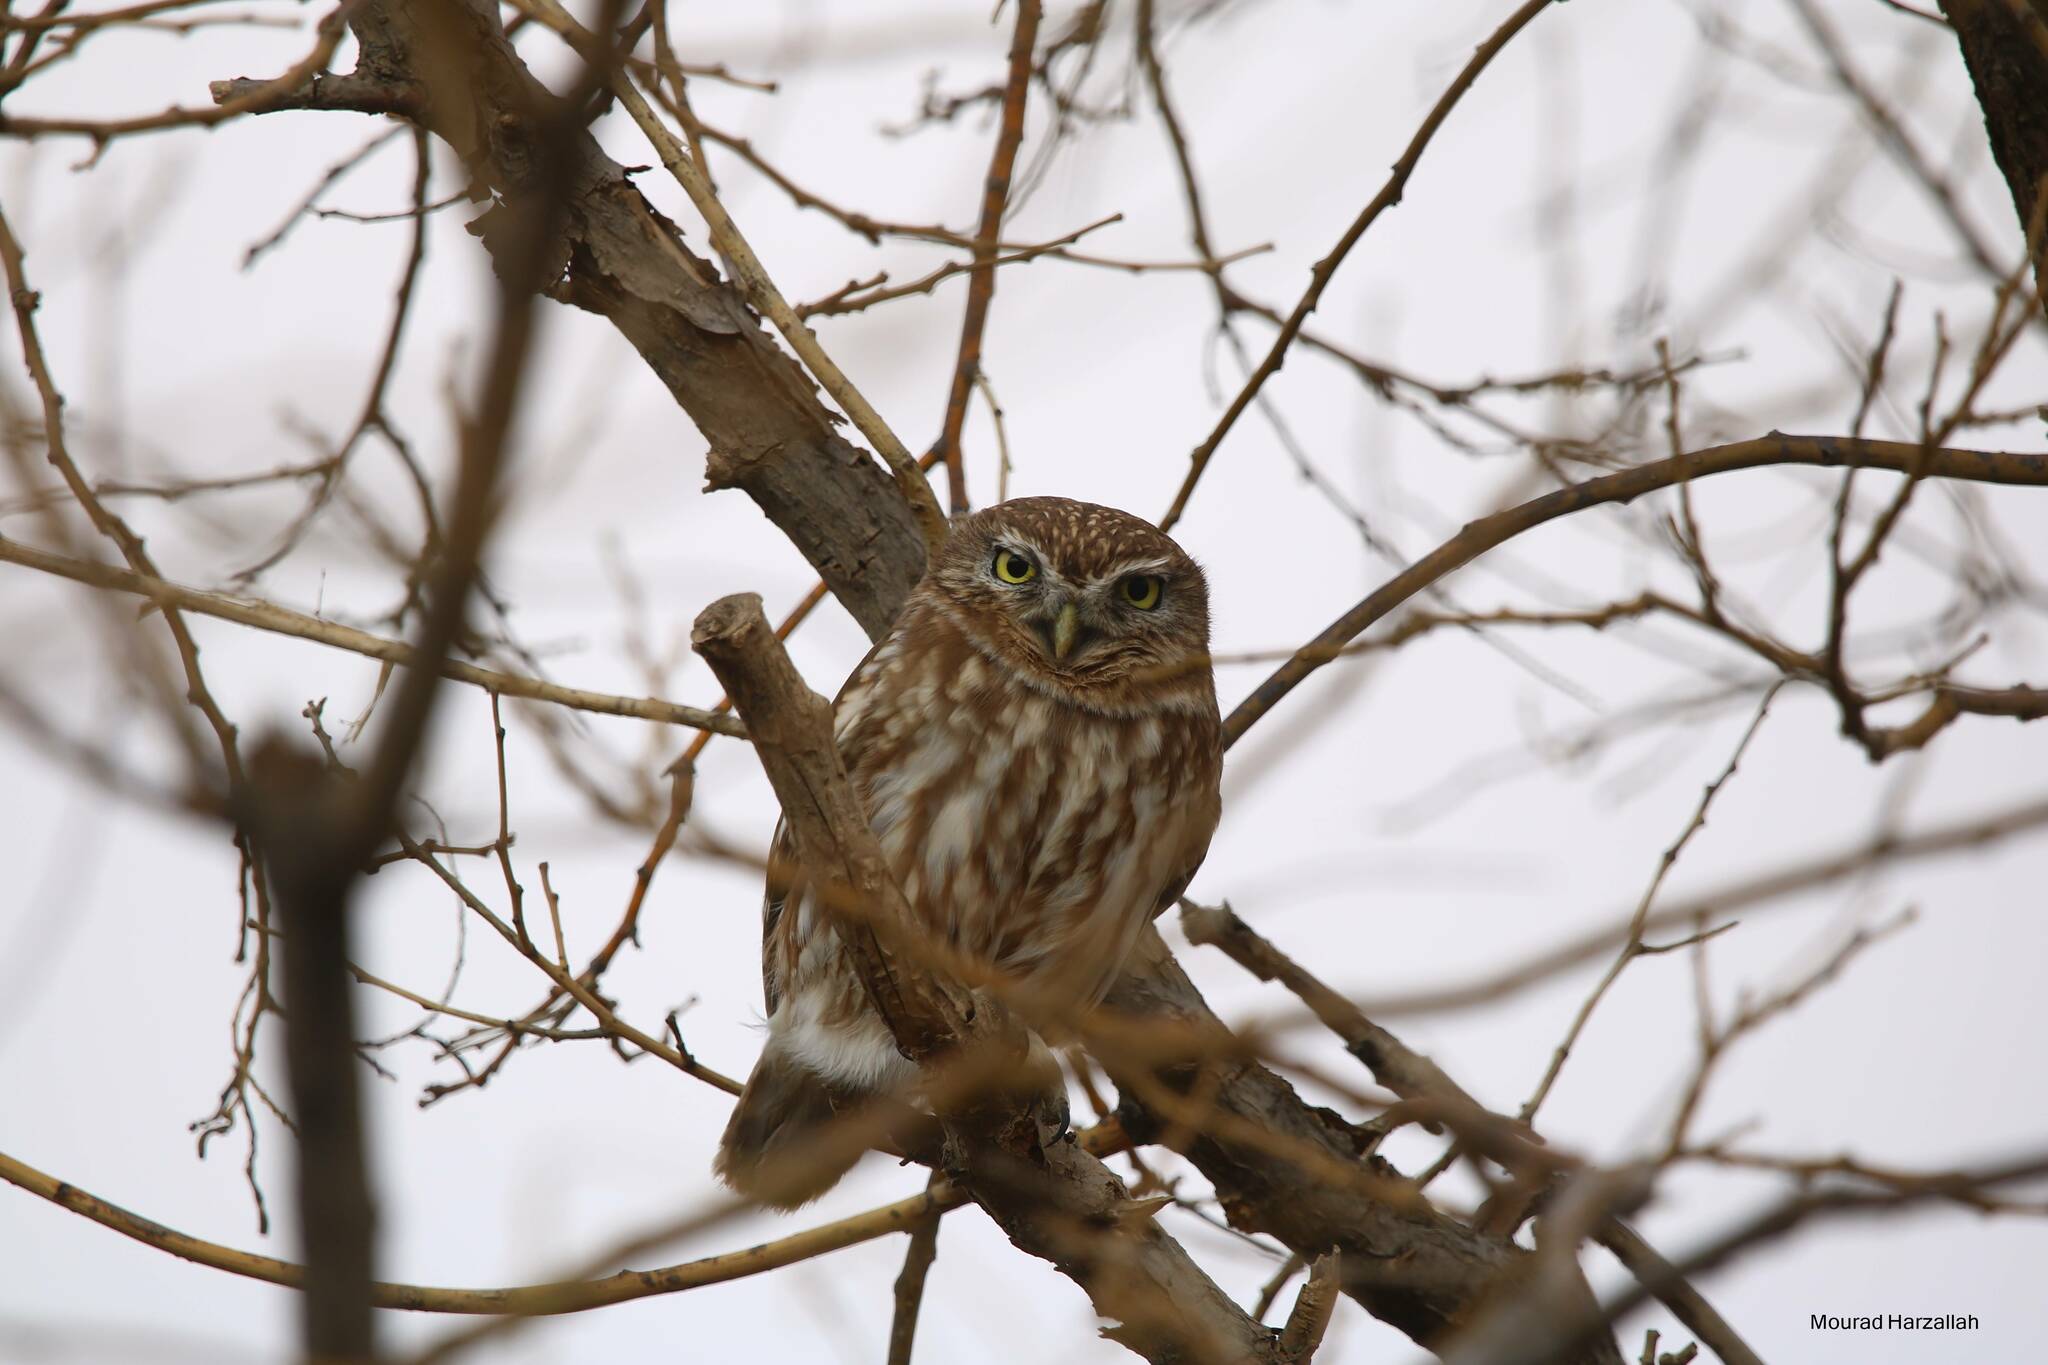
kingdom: Animalia
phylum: Chordata
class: Aves
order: Strigiformes
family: Strigidae
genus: Athene
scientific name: Athene noctua
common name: Little owl
